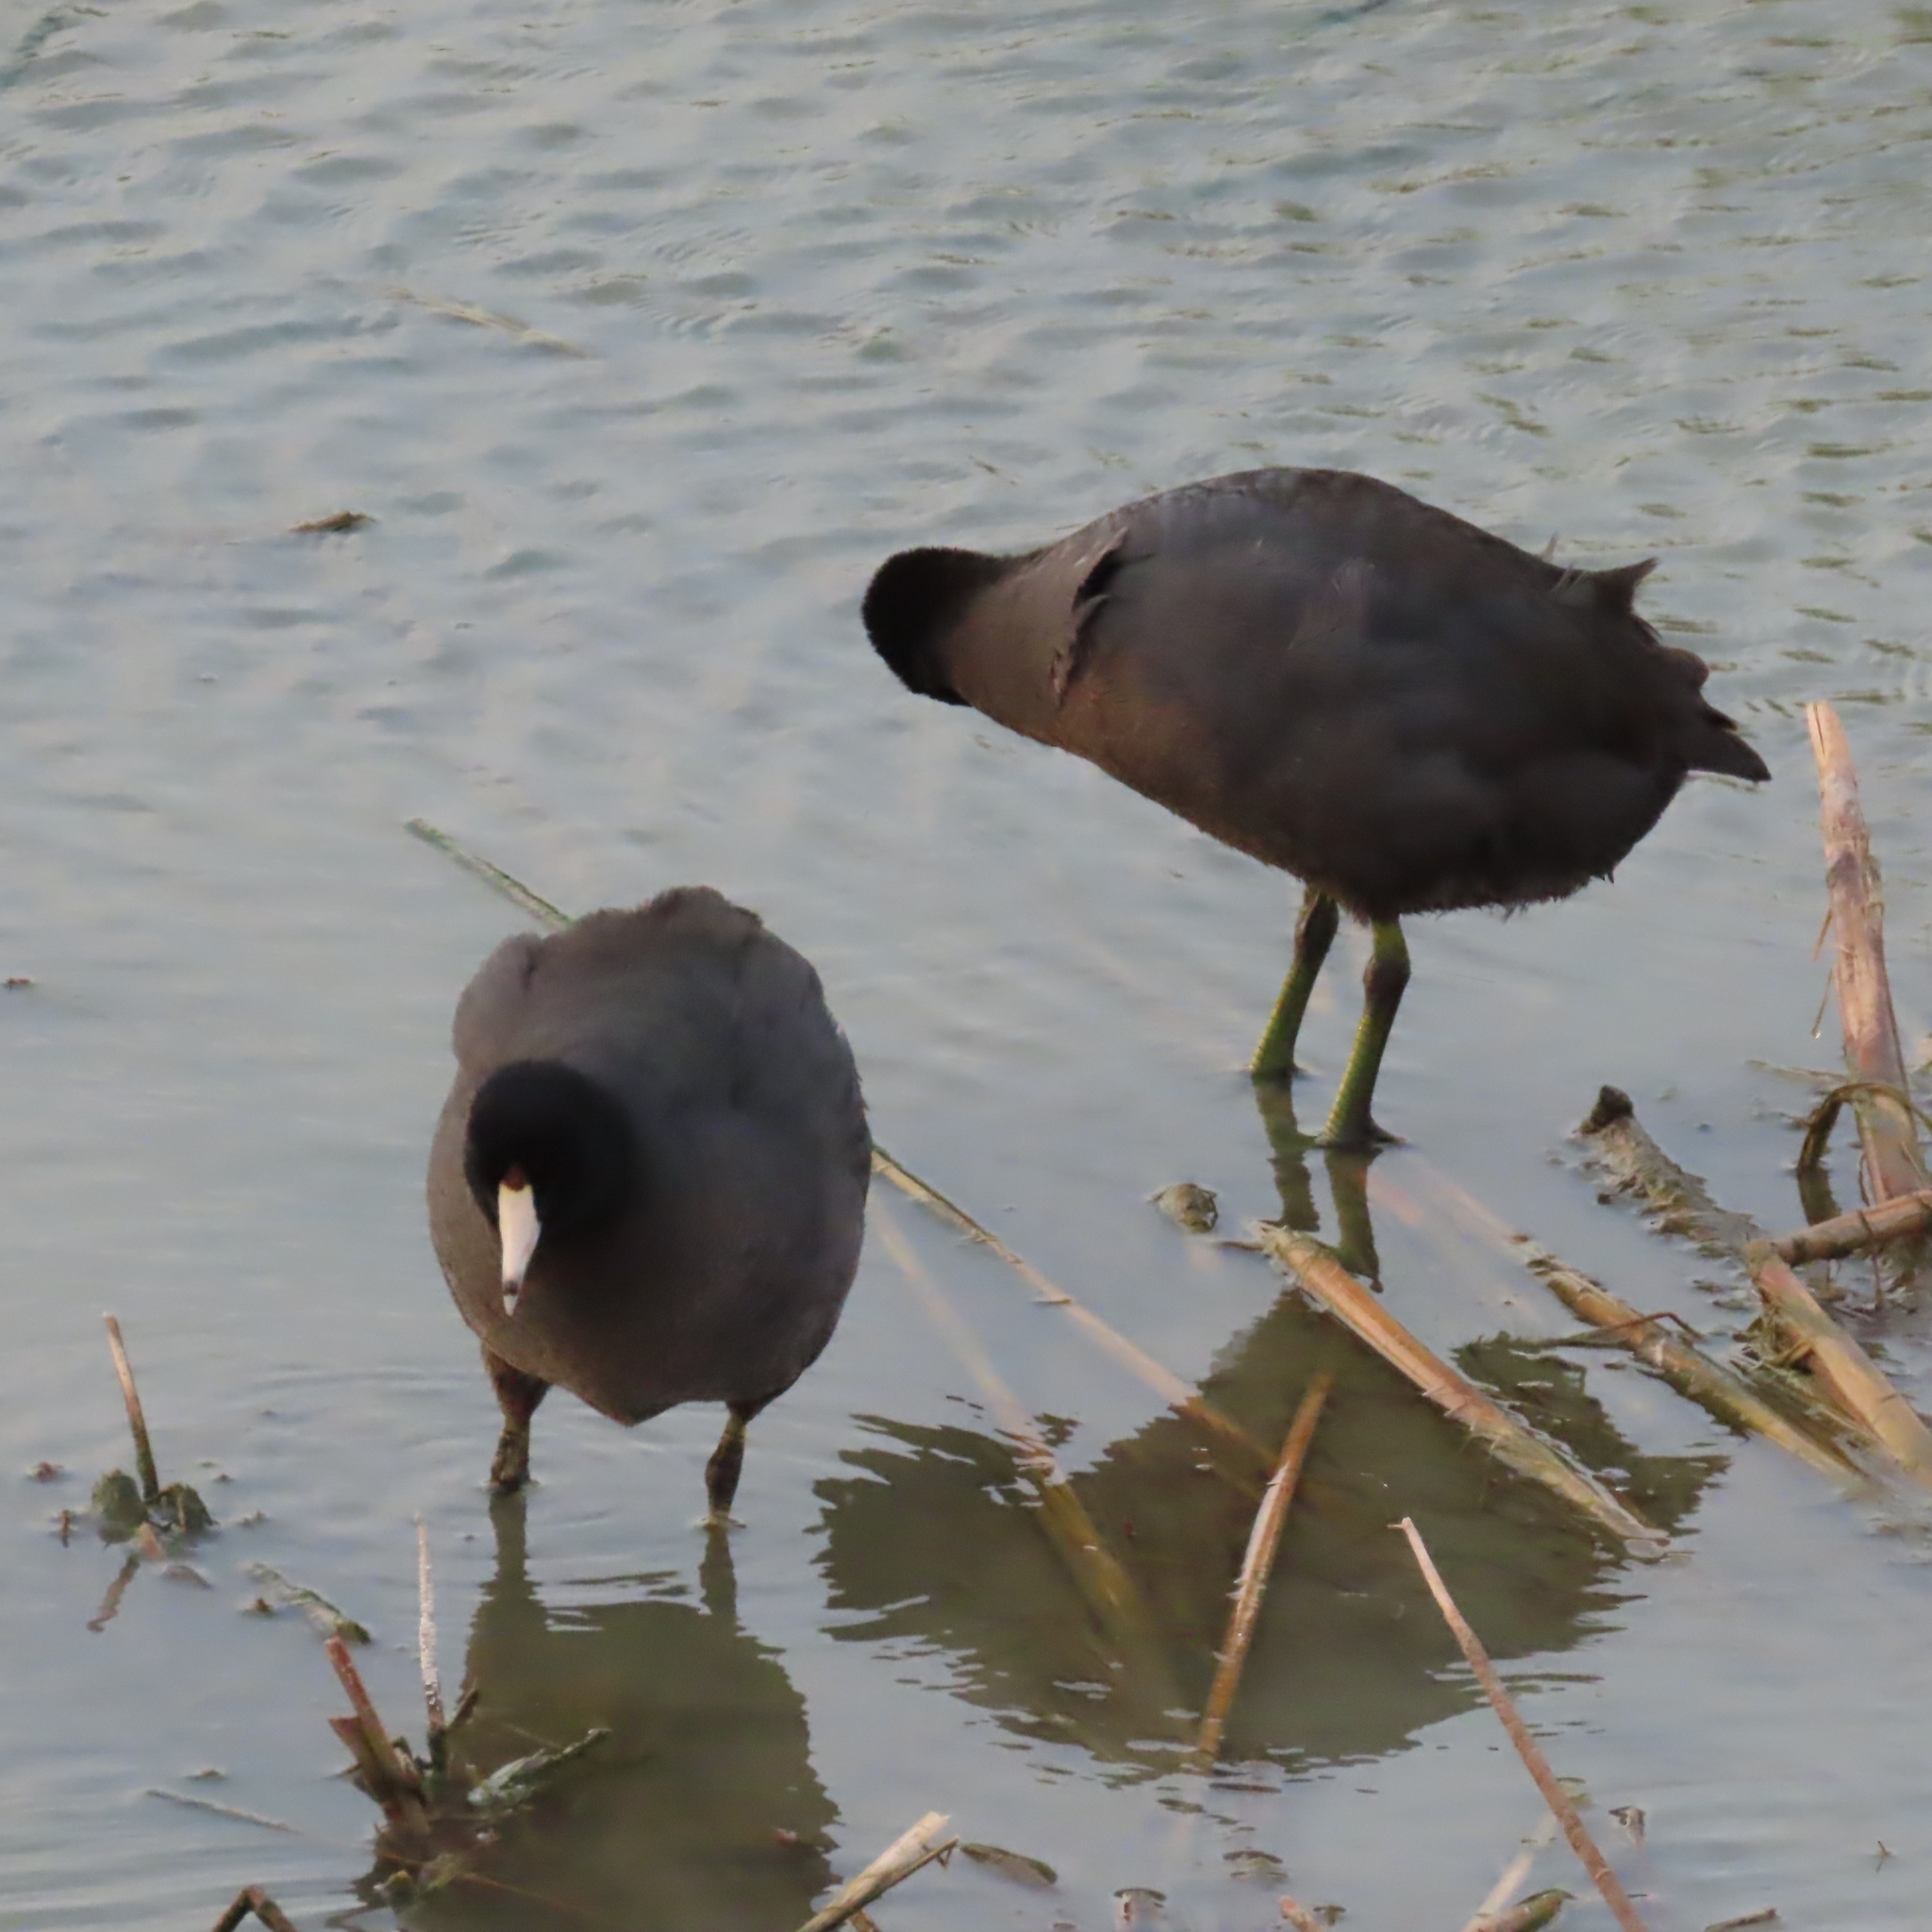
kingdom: Animalia
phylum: Chordata
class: Aves
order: Gruiformes
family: Rallidae
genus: Fulica
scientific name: Fulica americana
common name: American coot
